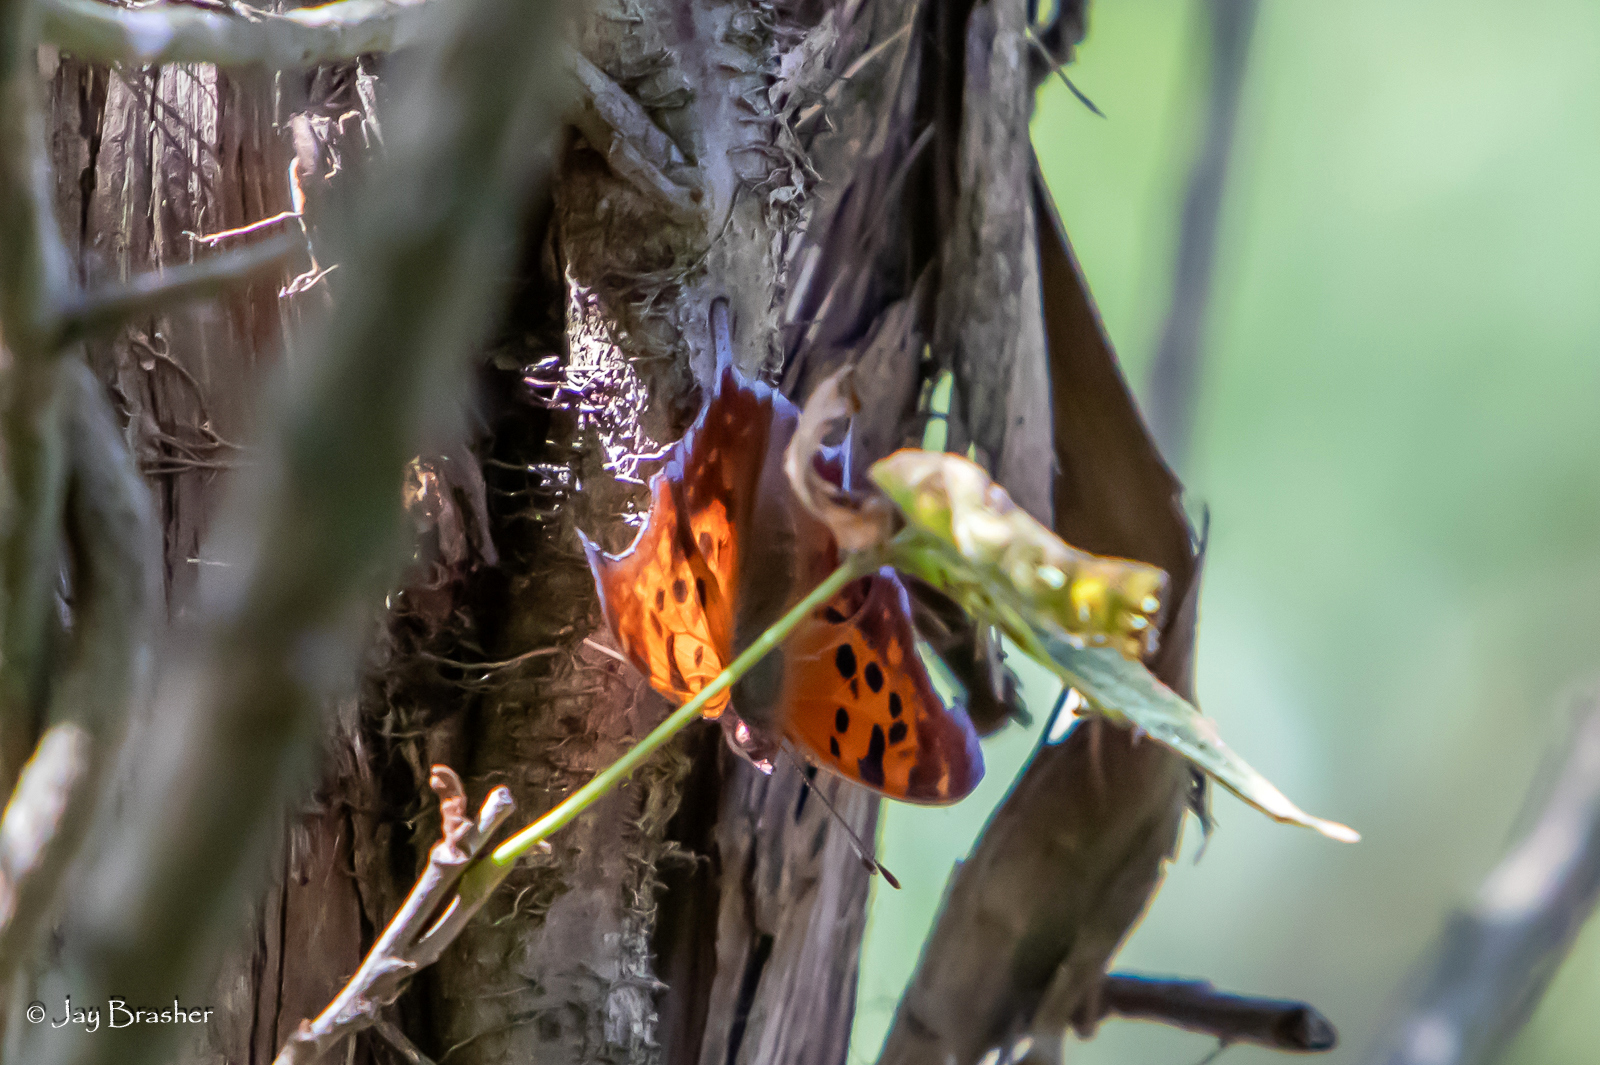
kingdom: Animalia
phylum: Arthropoda
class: Insecta
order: Lepidoptera
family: Nymphalidae
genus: Polygonia
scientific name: Polygonia interrogationis
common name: Question mark
